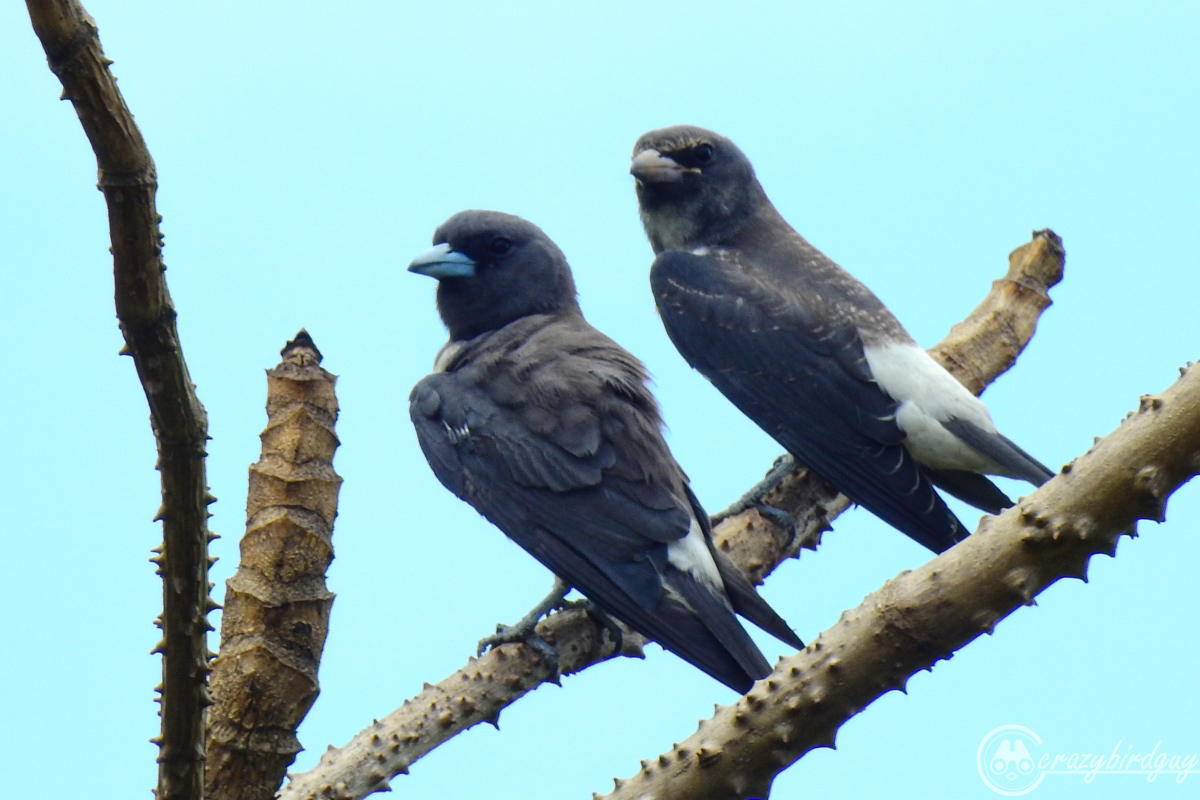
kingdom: Animalia
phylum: Chordata
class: Aves
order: Passeriformes
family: Artamidae
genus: Artamus
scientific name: Artamus leucoryn
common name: White-breasted woodswallow
